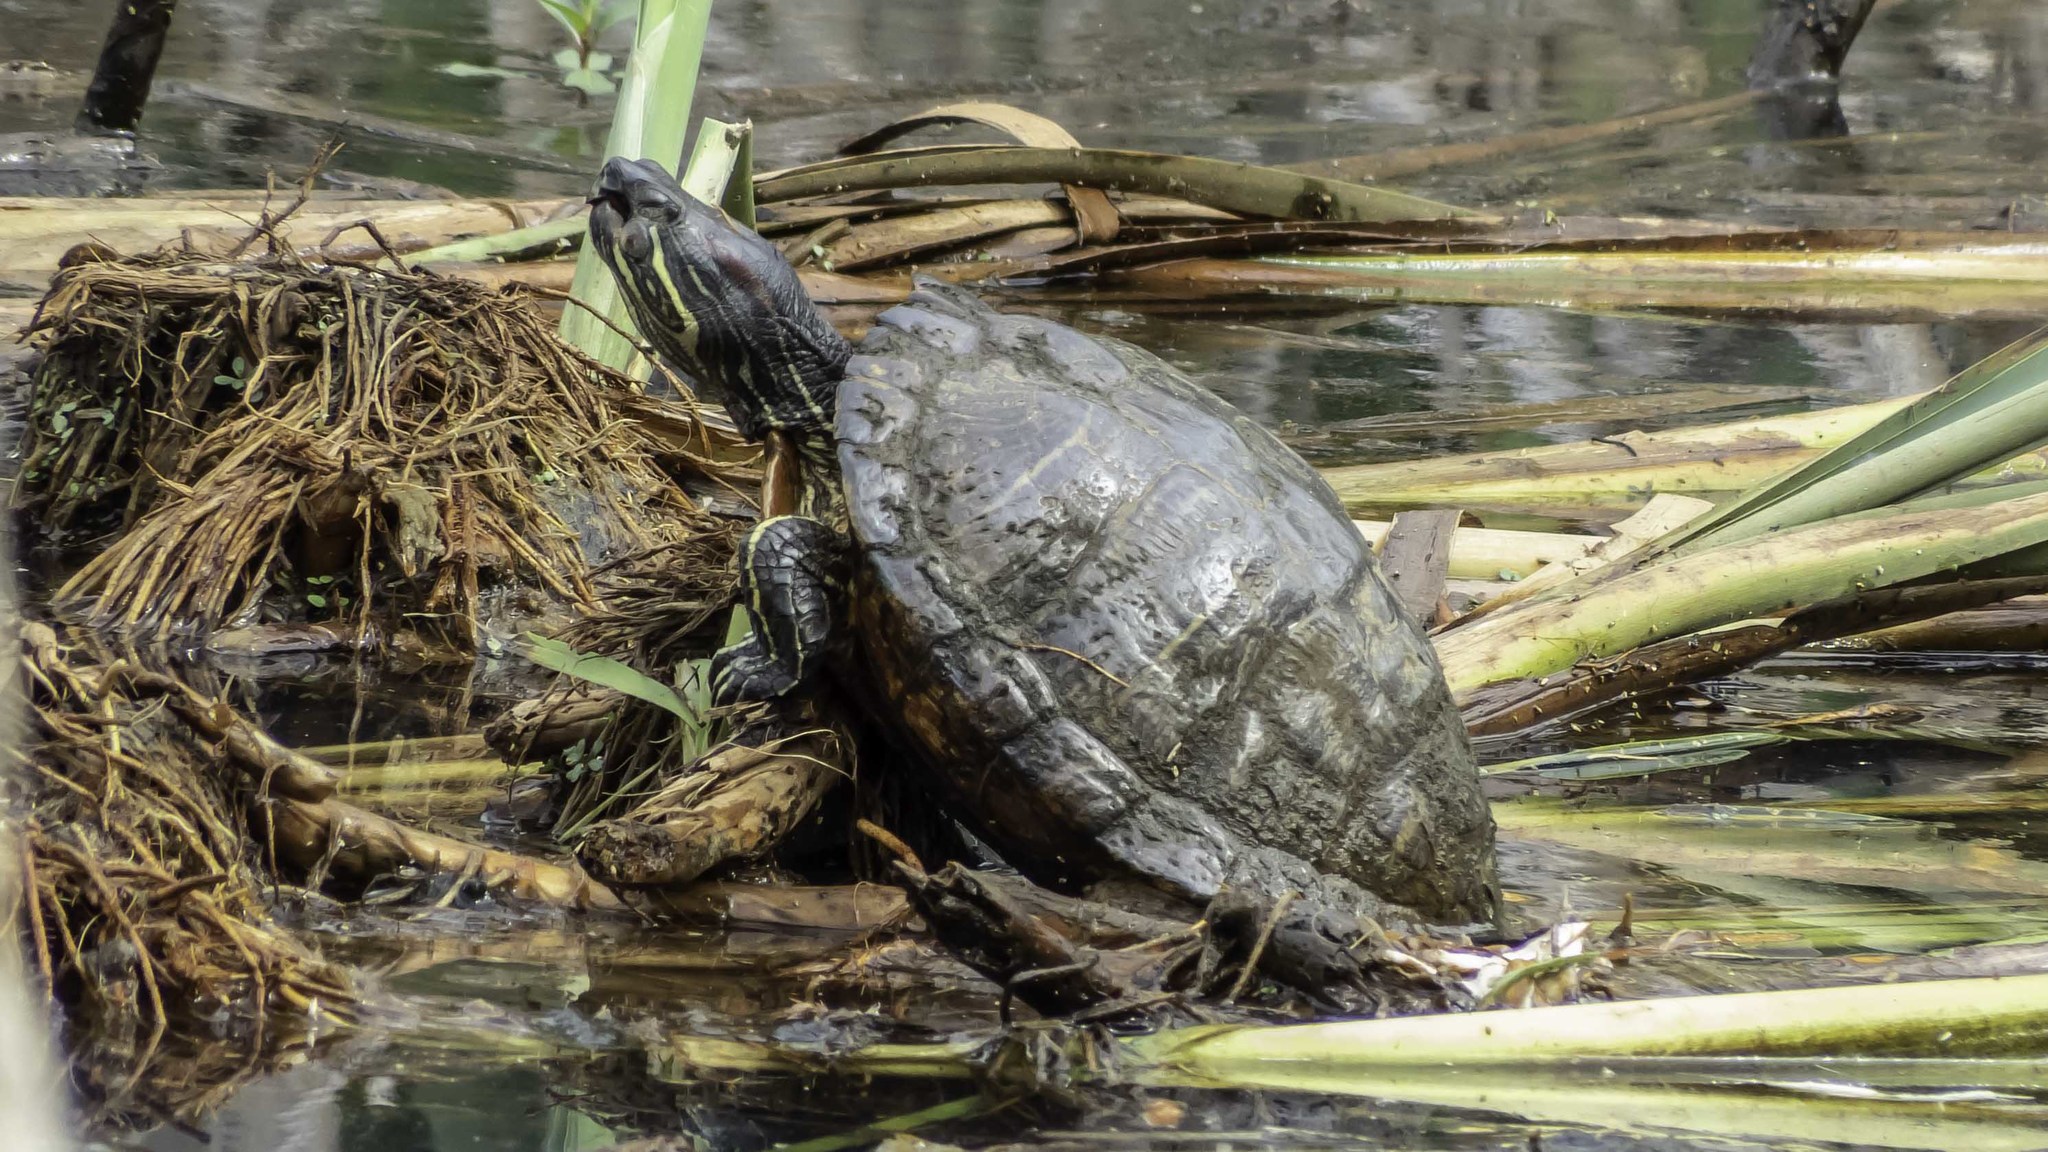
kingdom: Animalia
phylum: Chordata
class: Testudines
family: Emydidae
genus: Trachemys
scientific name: Trachemys scripta
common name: Slider
